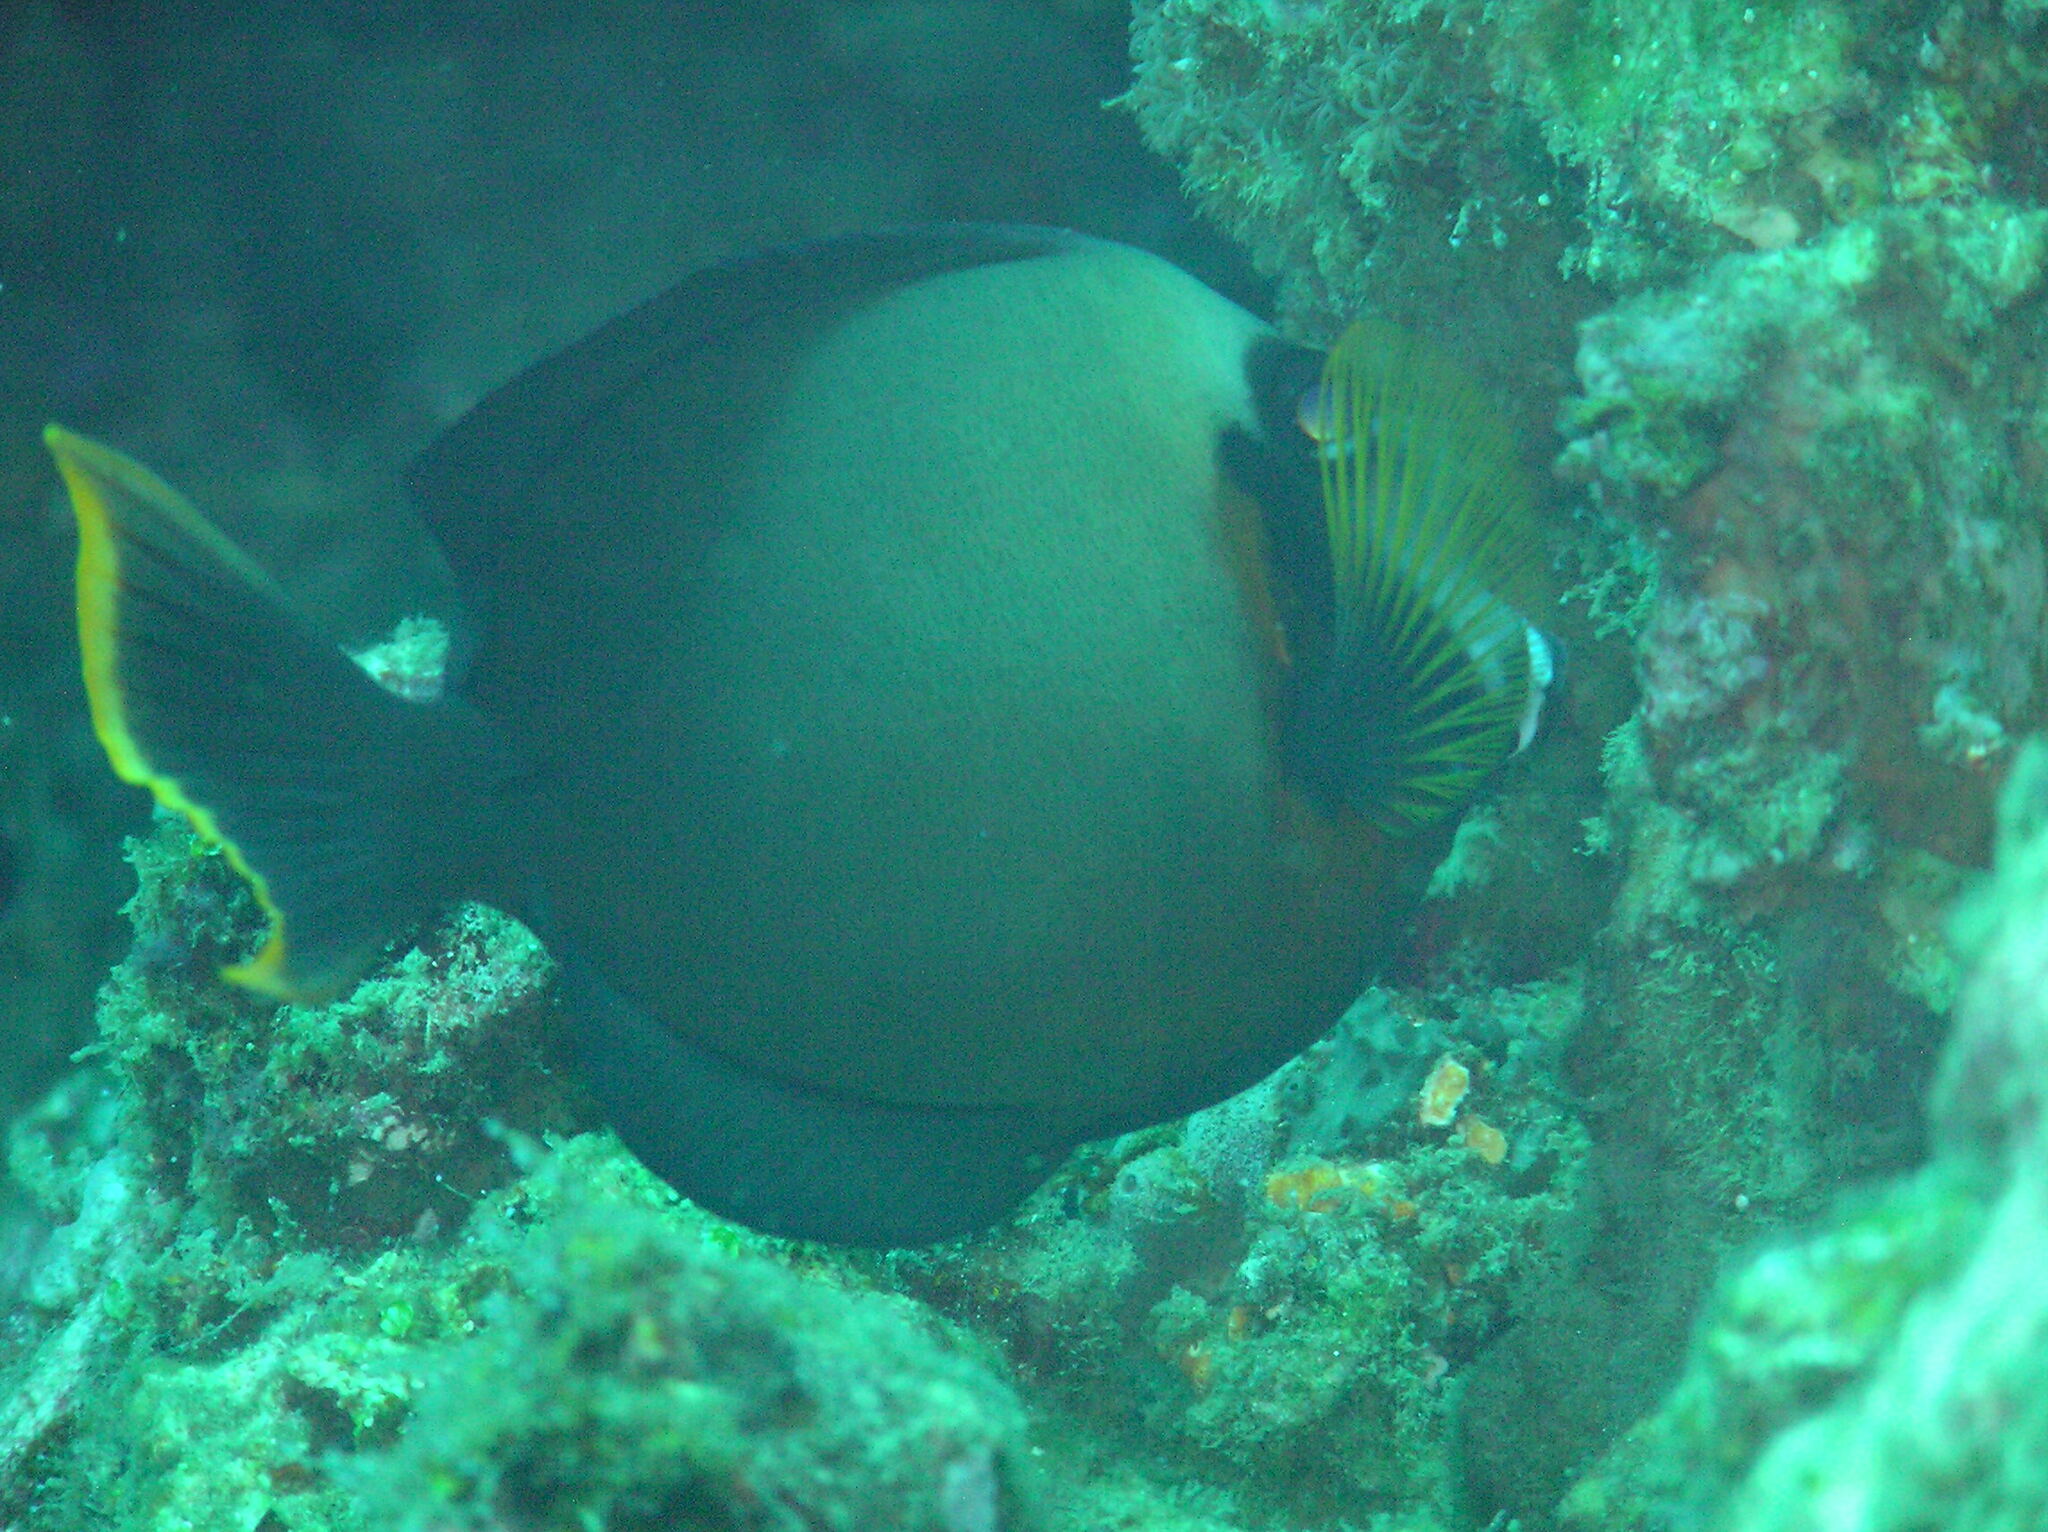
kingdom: Animalia
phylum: Chordata
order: Perciformes
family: Acanthuridae
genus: Acanthurus
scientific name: Acanthurus pyroferus
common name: Chocolate surgeonfish
